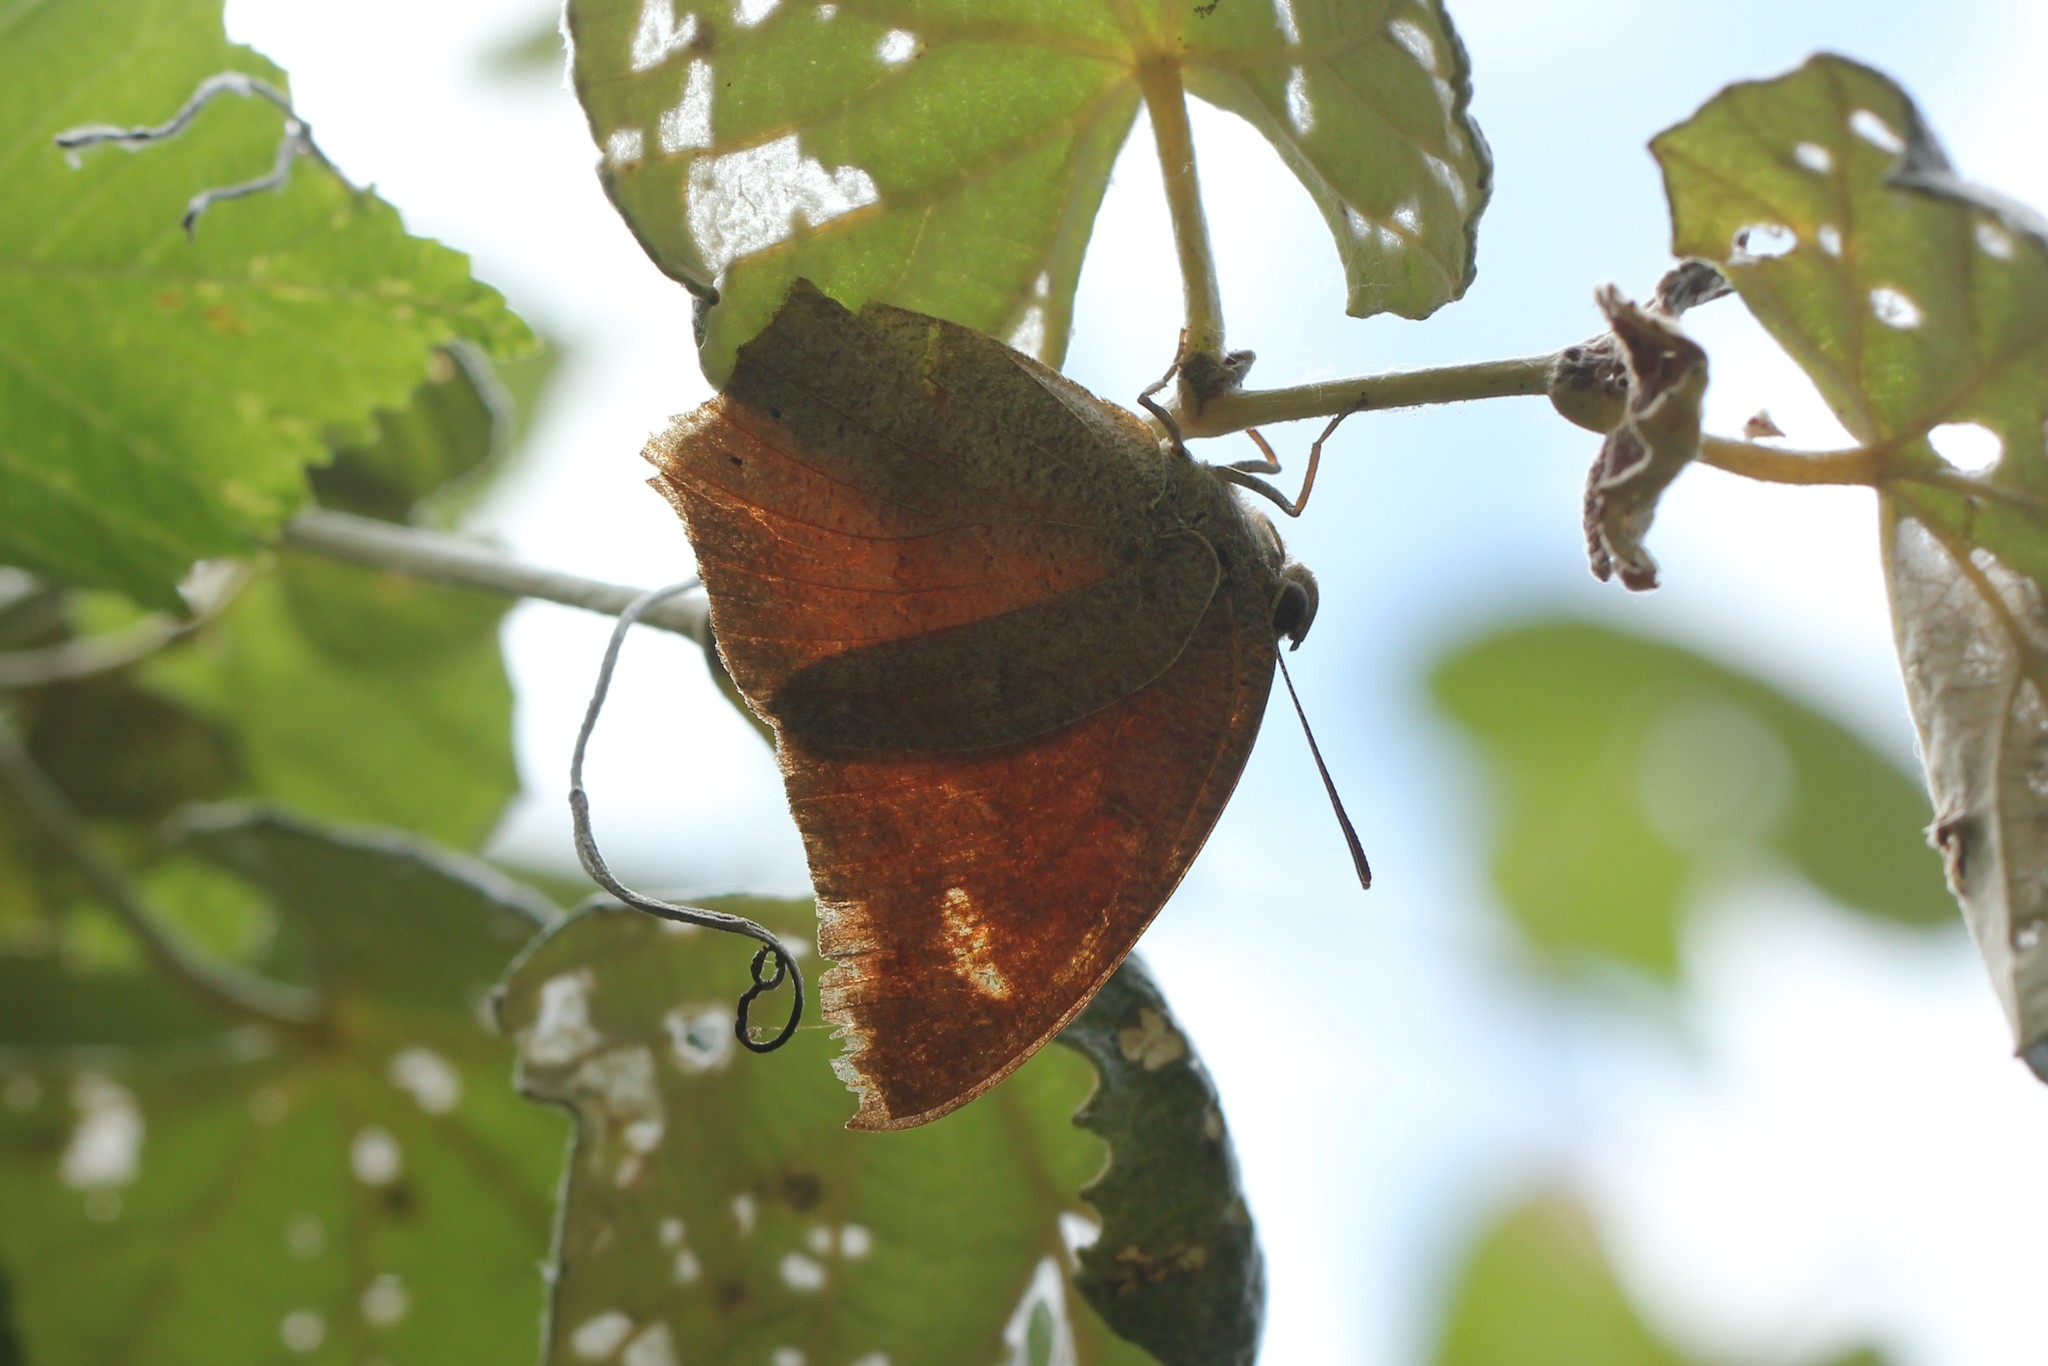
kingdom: Animalia
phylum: Arthropoda
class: Insecta
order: Lepidoptera
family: Nymphalidae
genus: Anaea
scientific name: Anaea andria
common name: Goatweed leafwing
